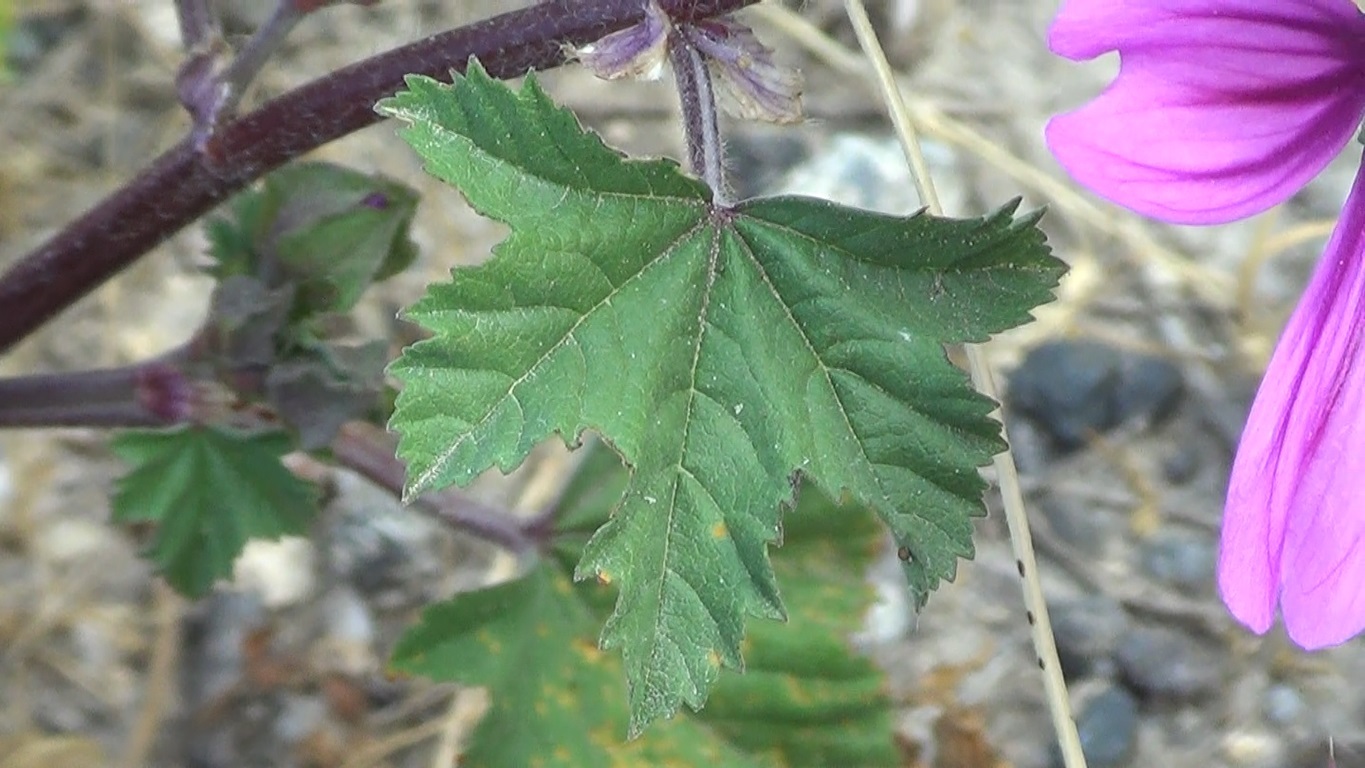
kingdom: Plantae
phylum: Tracheophyta
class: Magnoliopsida
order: Malvales
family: Malvaceae
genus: Malva
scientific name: Malva sylvestris
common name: Common mallow
